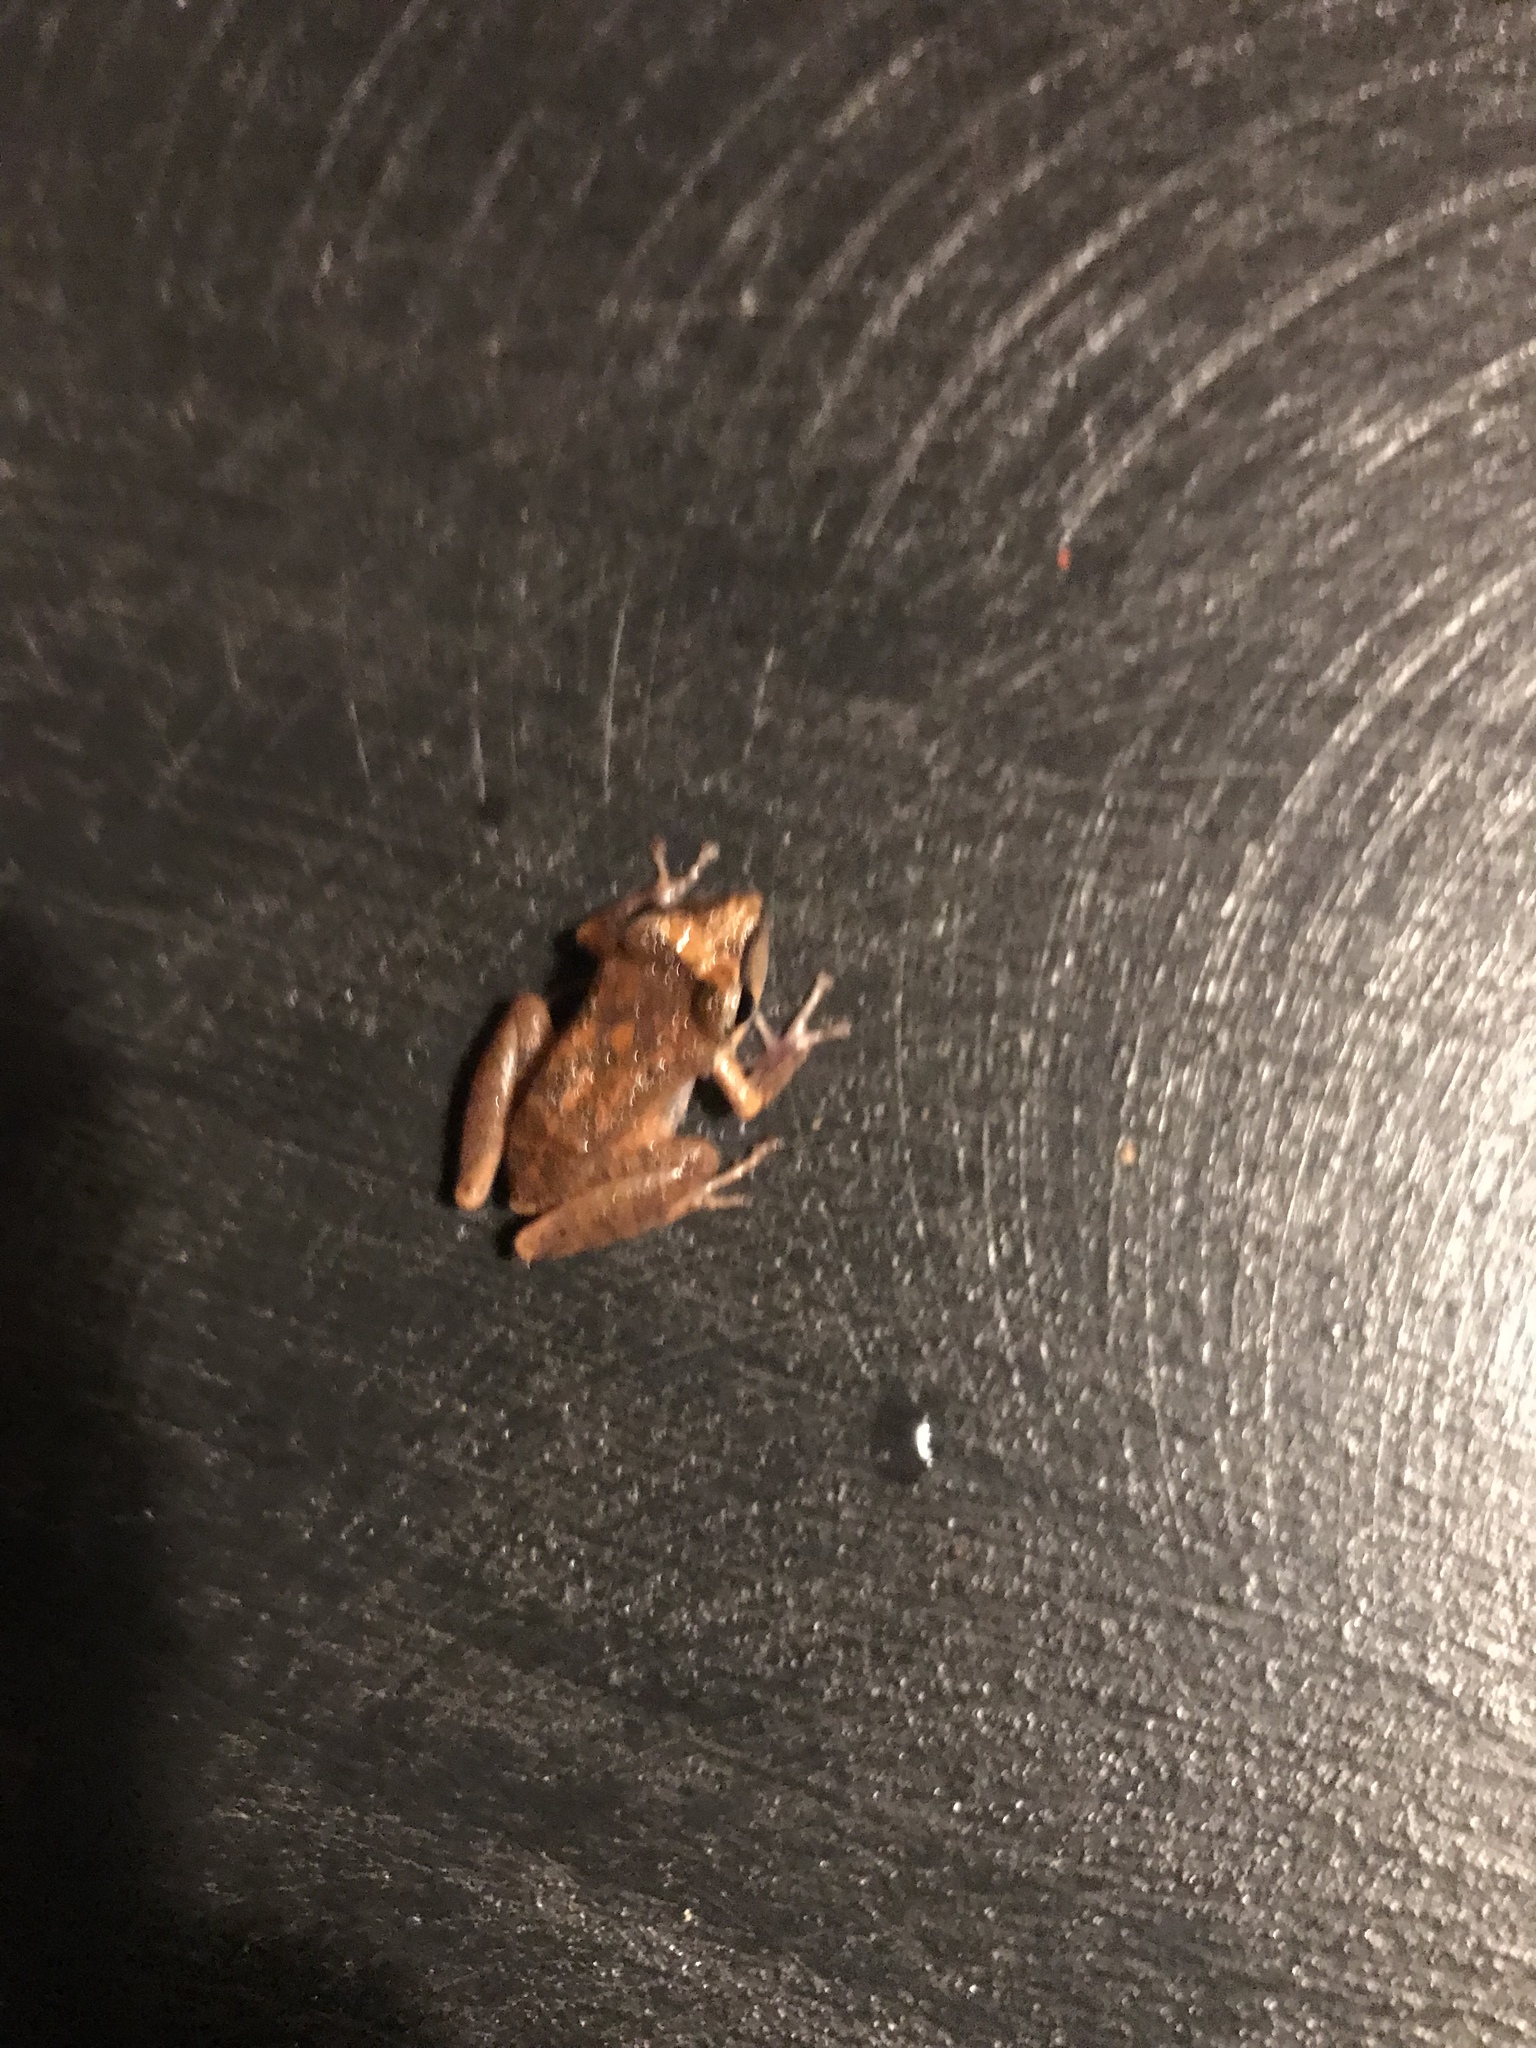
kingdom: Animalia
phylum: Chordata
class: Amphibia
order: Anura
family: Craugastoridae
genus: Pristimantis
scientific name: Pristimantis ramagii
